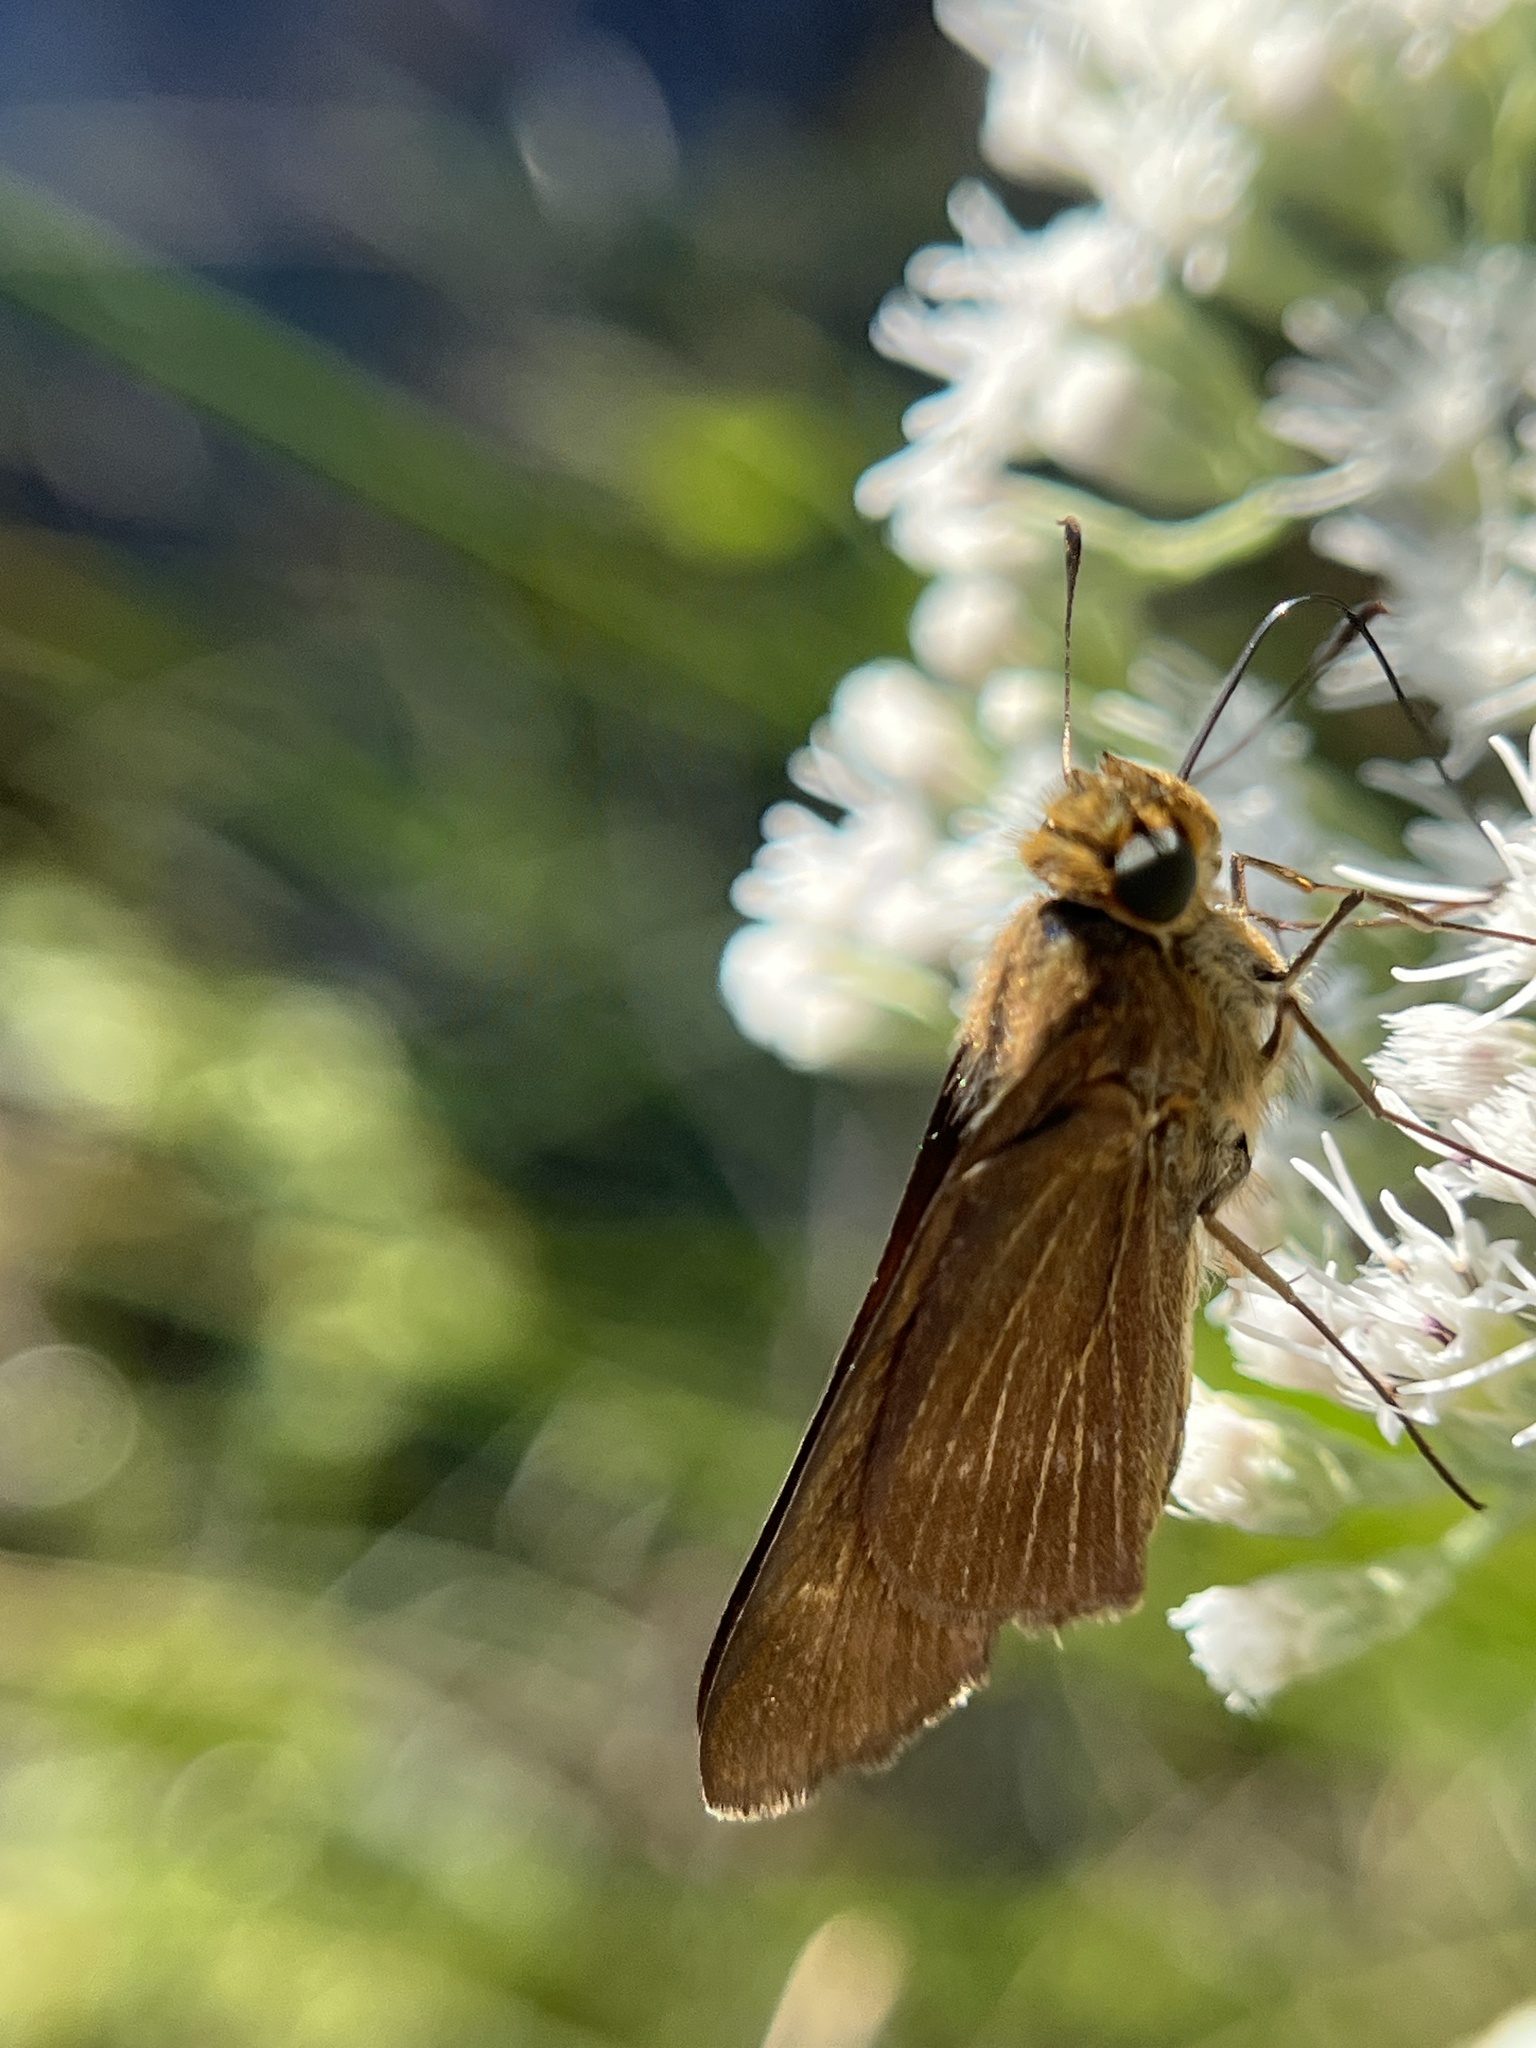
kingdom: Animalia
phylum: Arthropoda
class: Insecta
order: Lepidoptera
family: Hesperiidae
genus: Panoquina
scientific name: Panoquina ocola
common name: Ocola skipper
